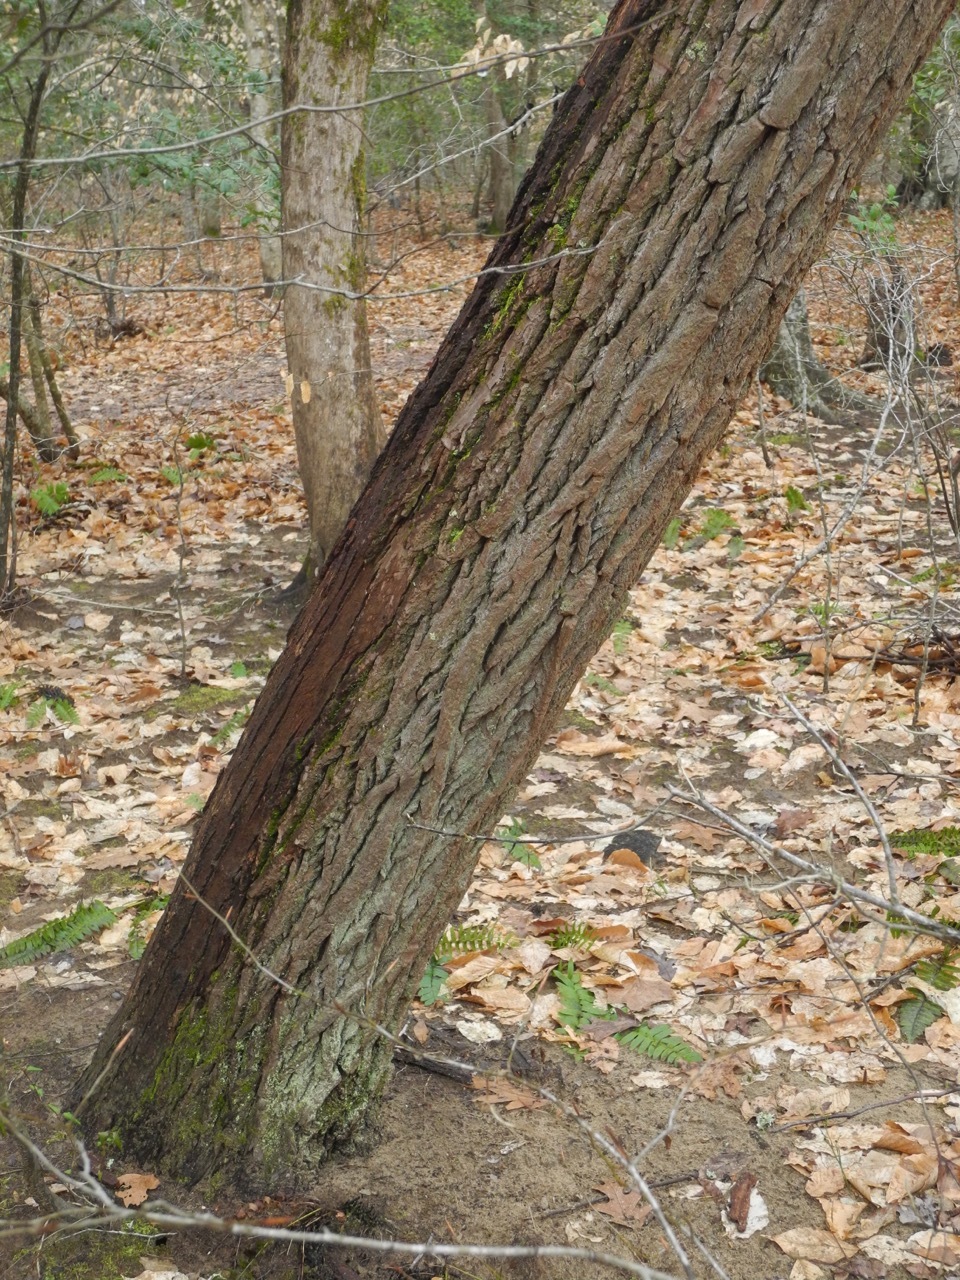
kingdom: Plantae
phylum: Tracheophyta
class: Magnoliopsida
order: Ericales
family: Ericaceae
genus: Oxydendrum
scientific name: Oxydendrum arboreum
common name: Sourwood
